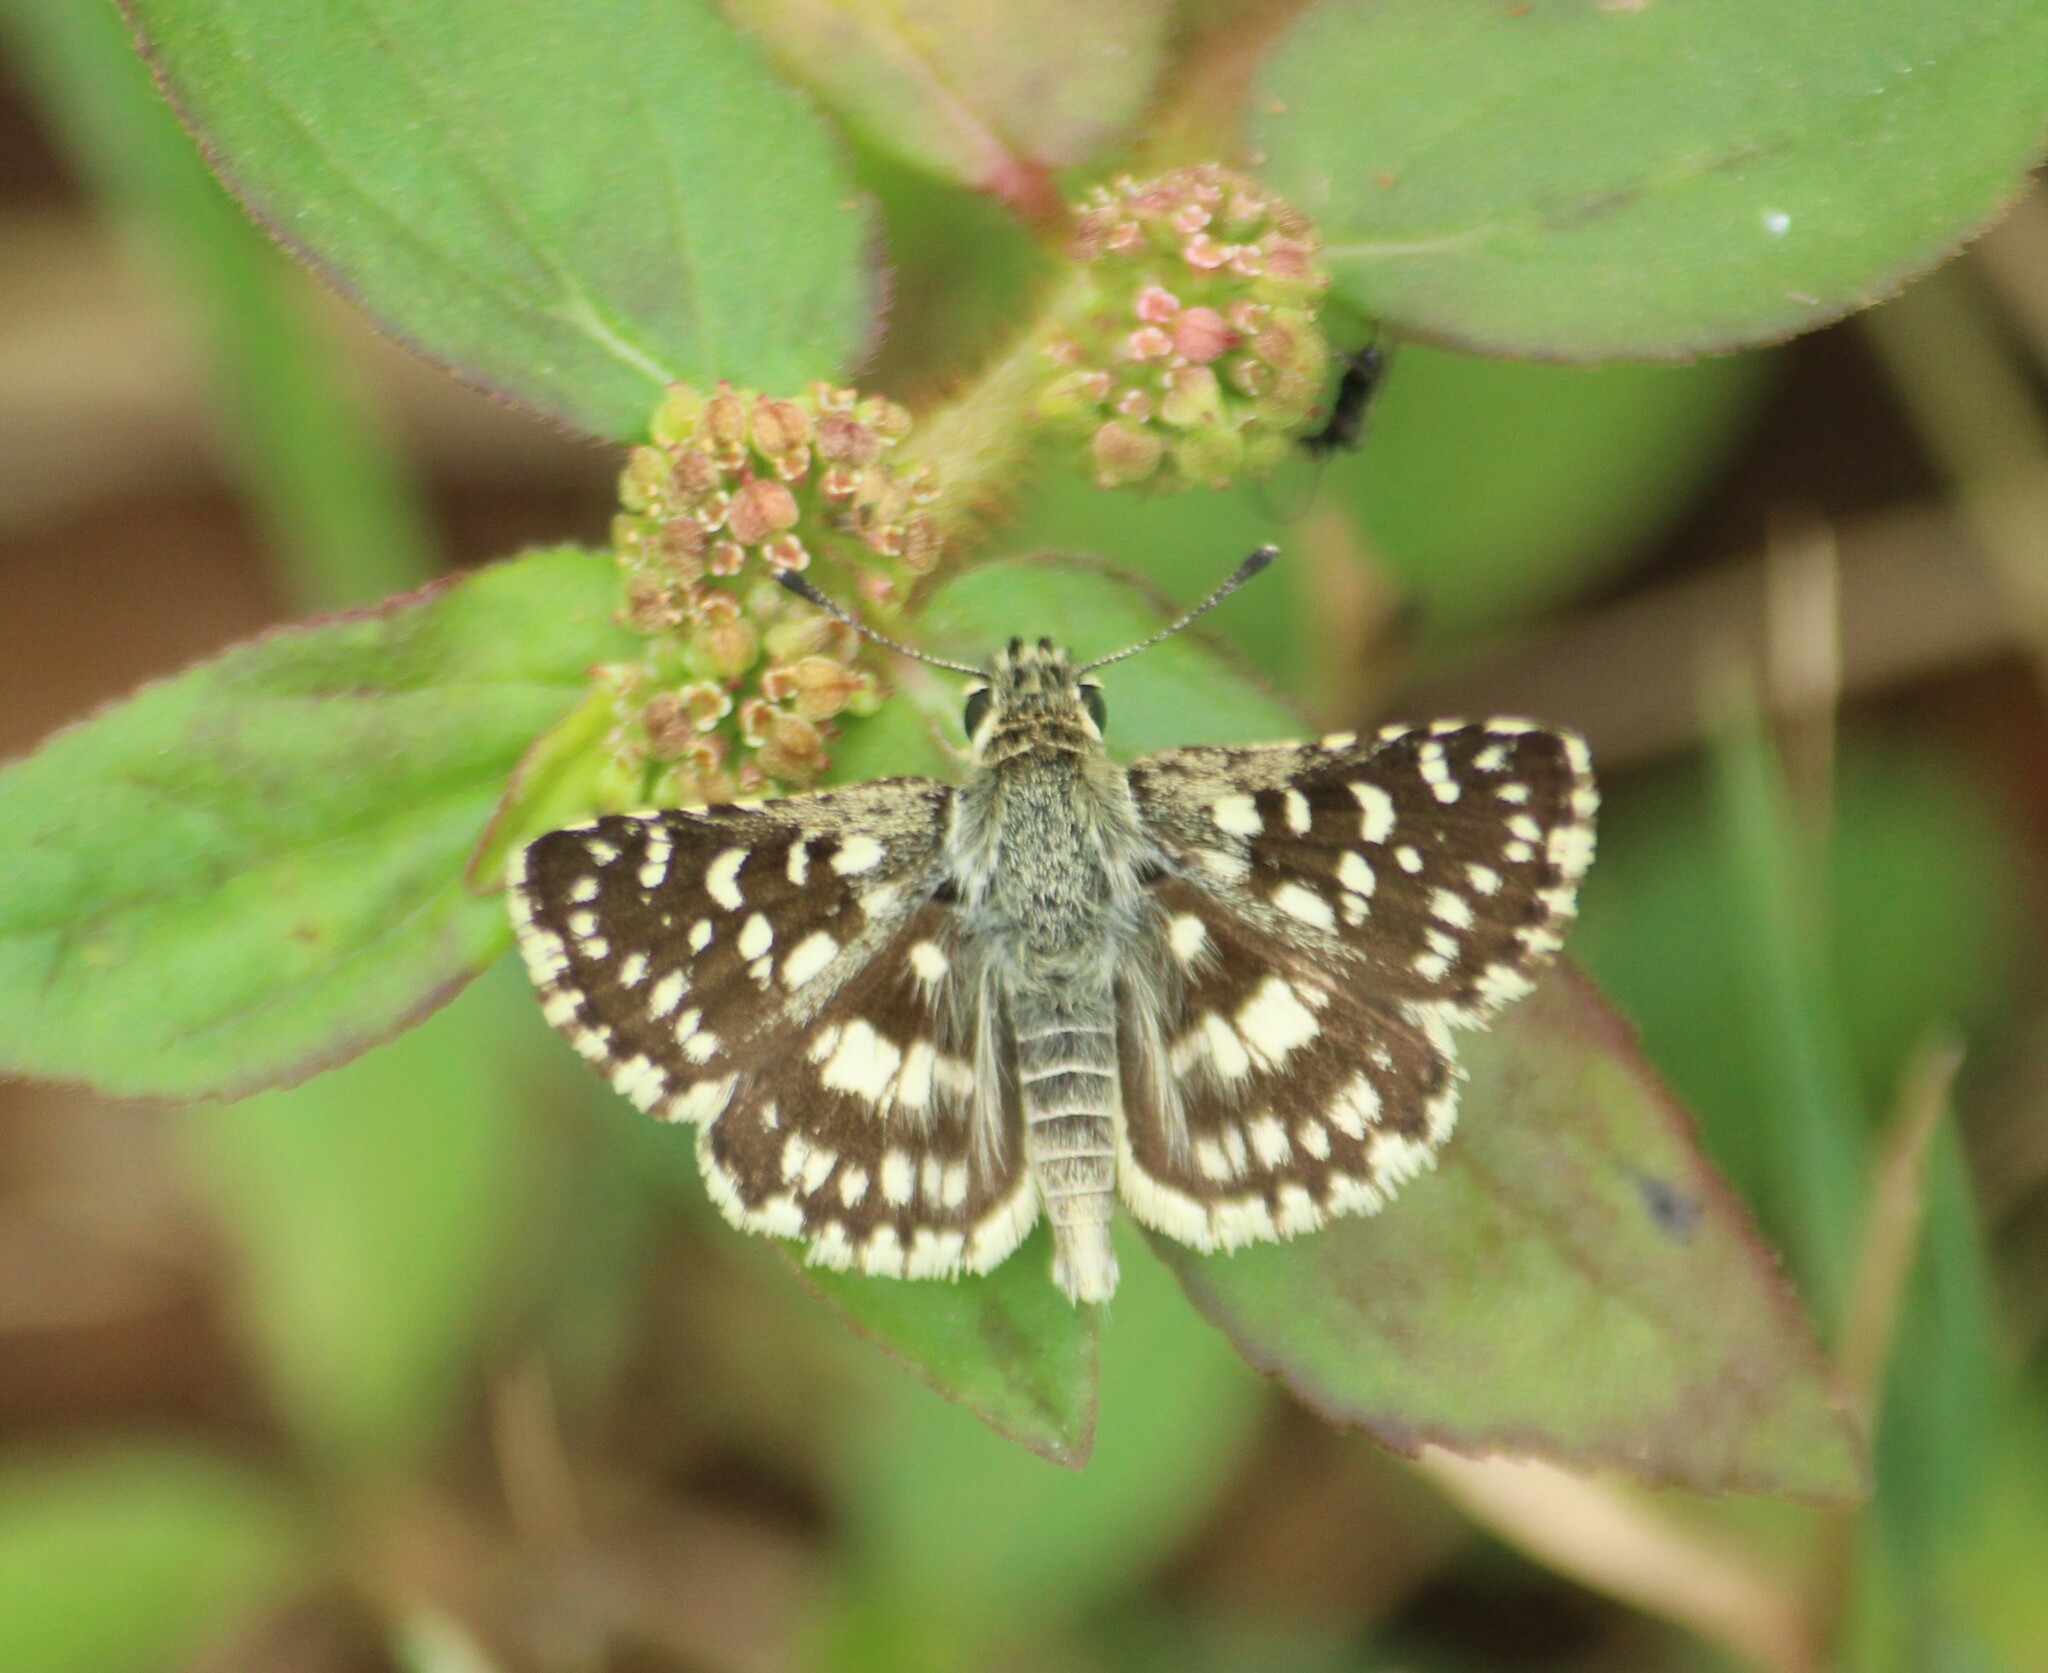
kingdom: Animalia
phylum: Arthropoda
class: Insecta
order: Lepidoptera
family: Hesperiidae
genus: Spialia
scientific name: Spialia galba
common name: Indian skipper
